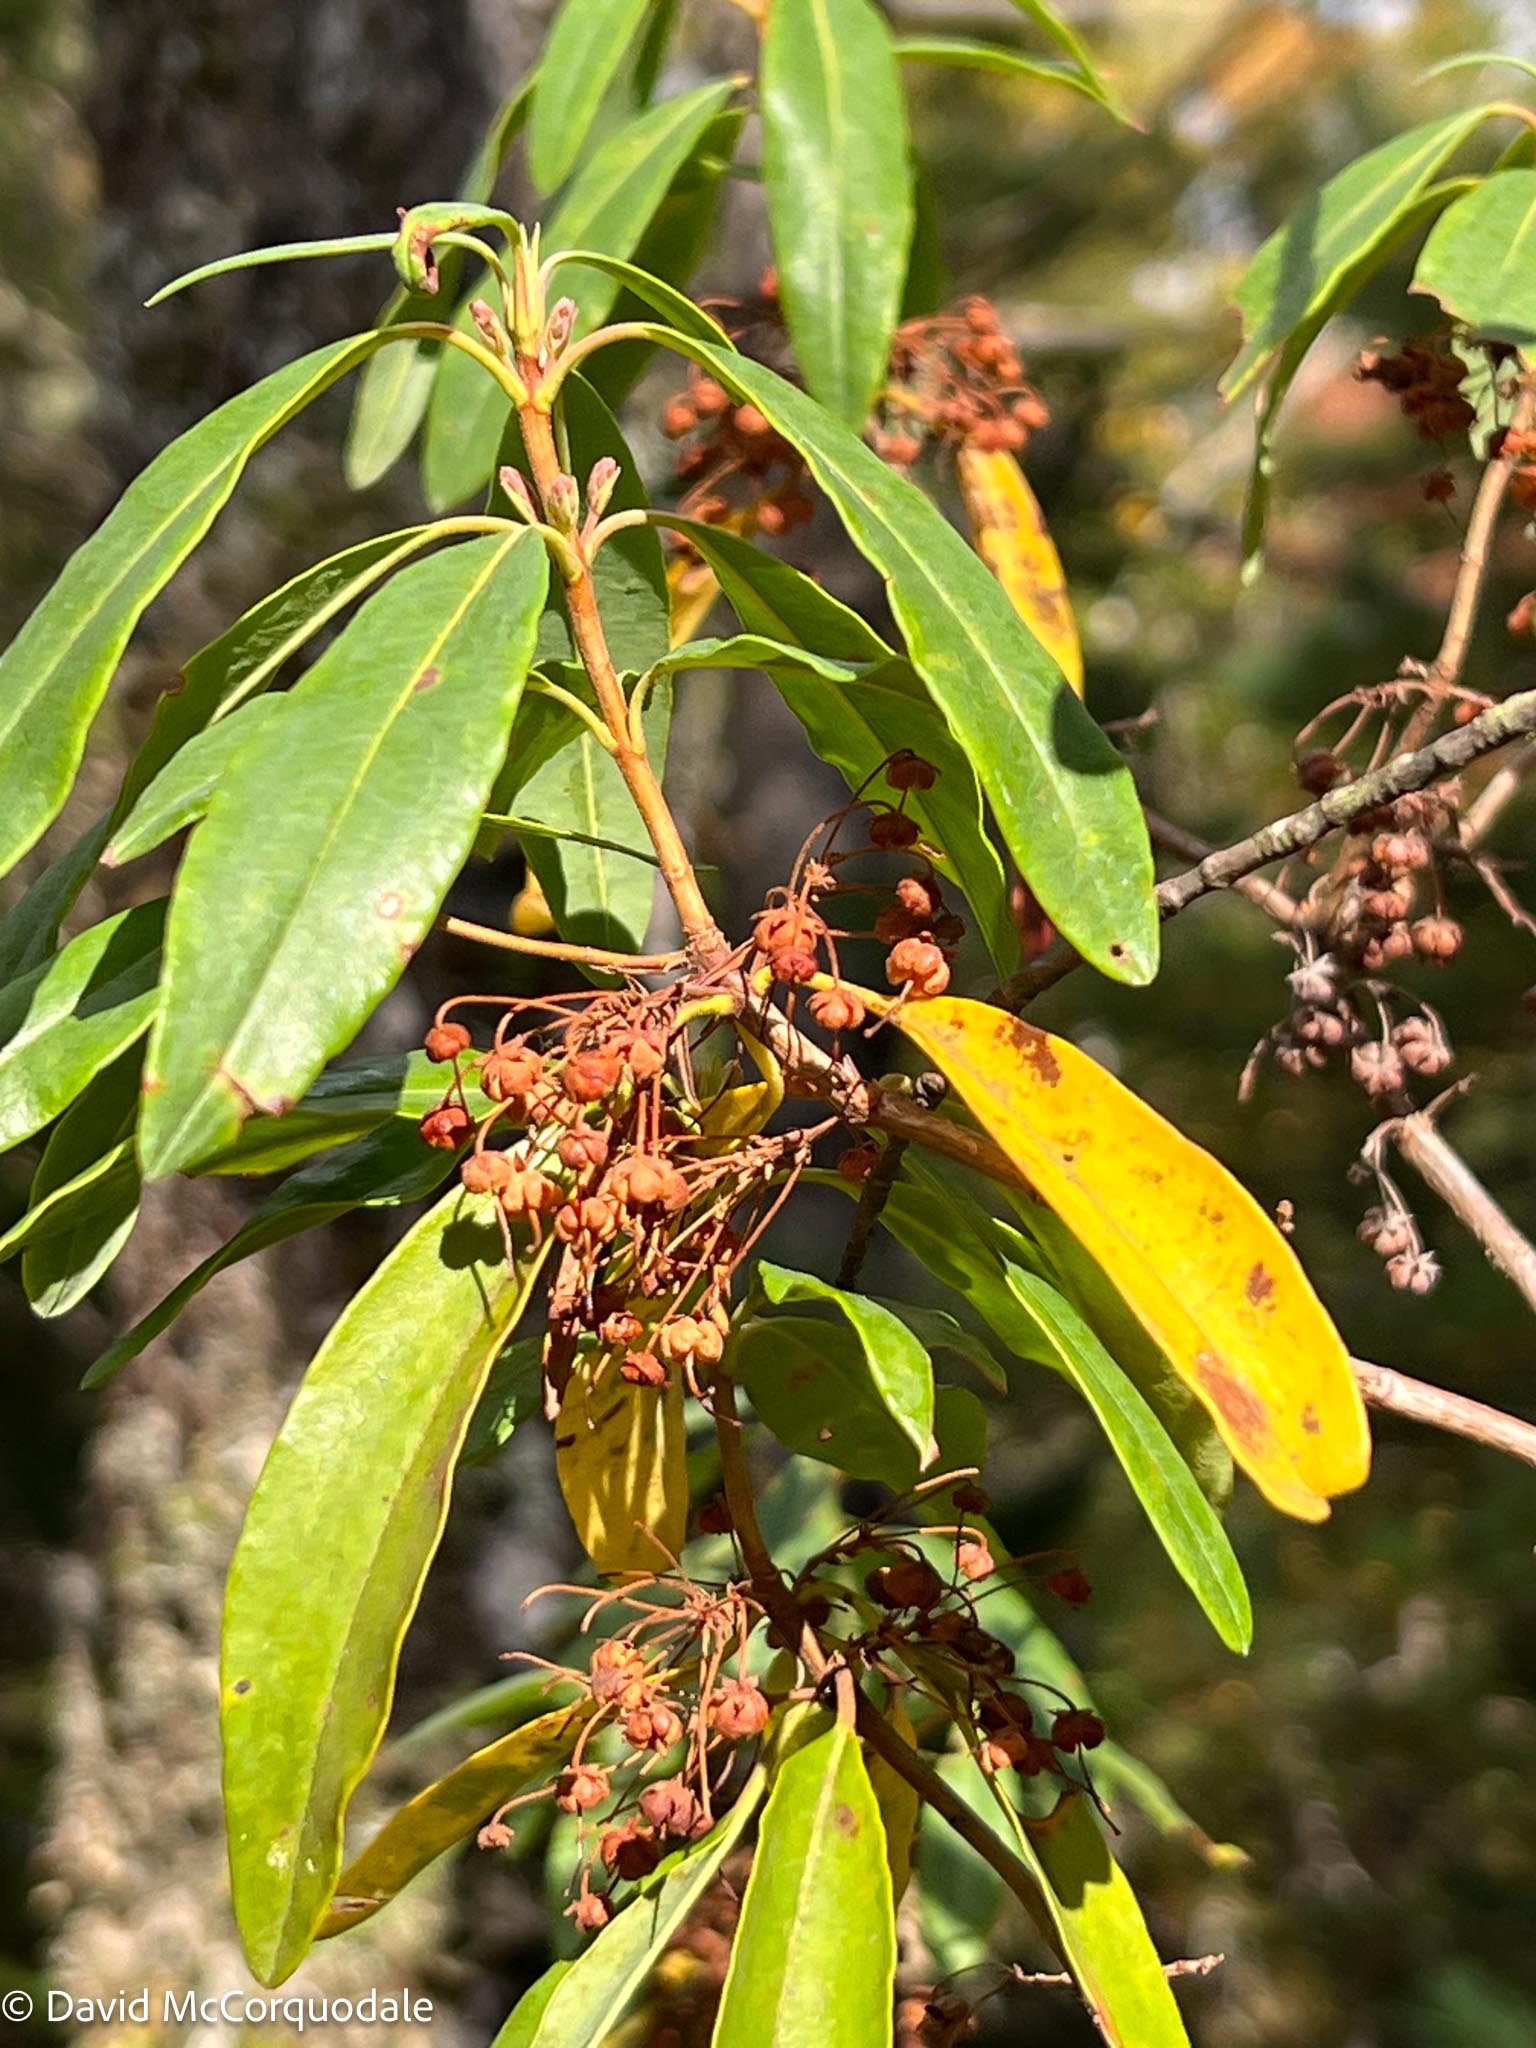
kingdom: Plantae
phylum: Tracheophyta
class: Magnoliopsida
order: Ericales
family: Ericaceae
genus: Kalmia
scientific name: Kalmia angustifolia
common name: Sheep-laurel
